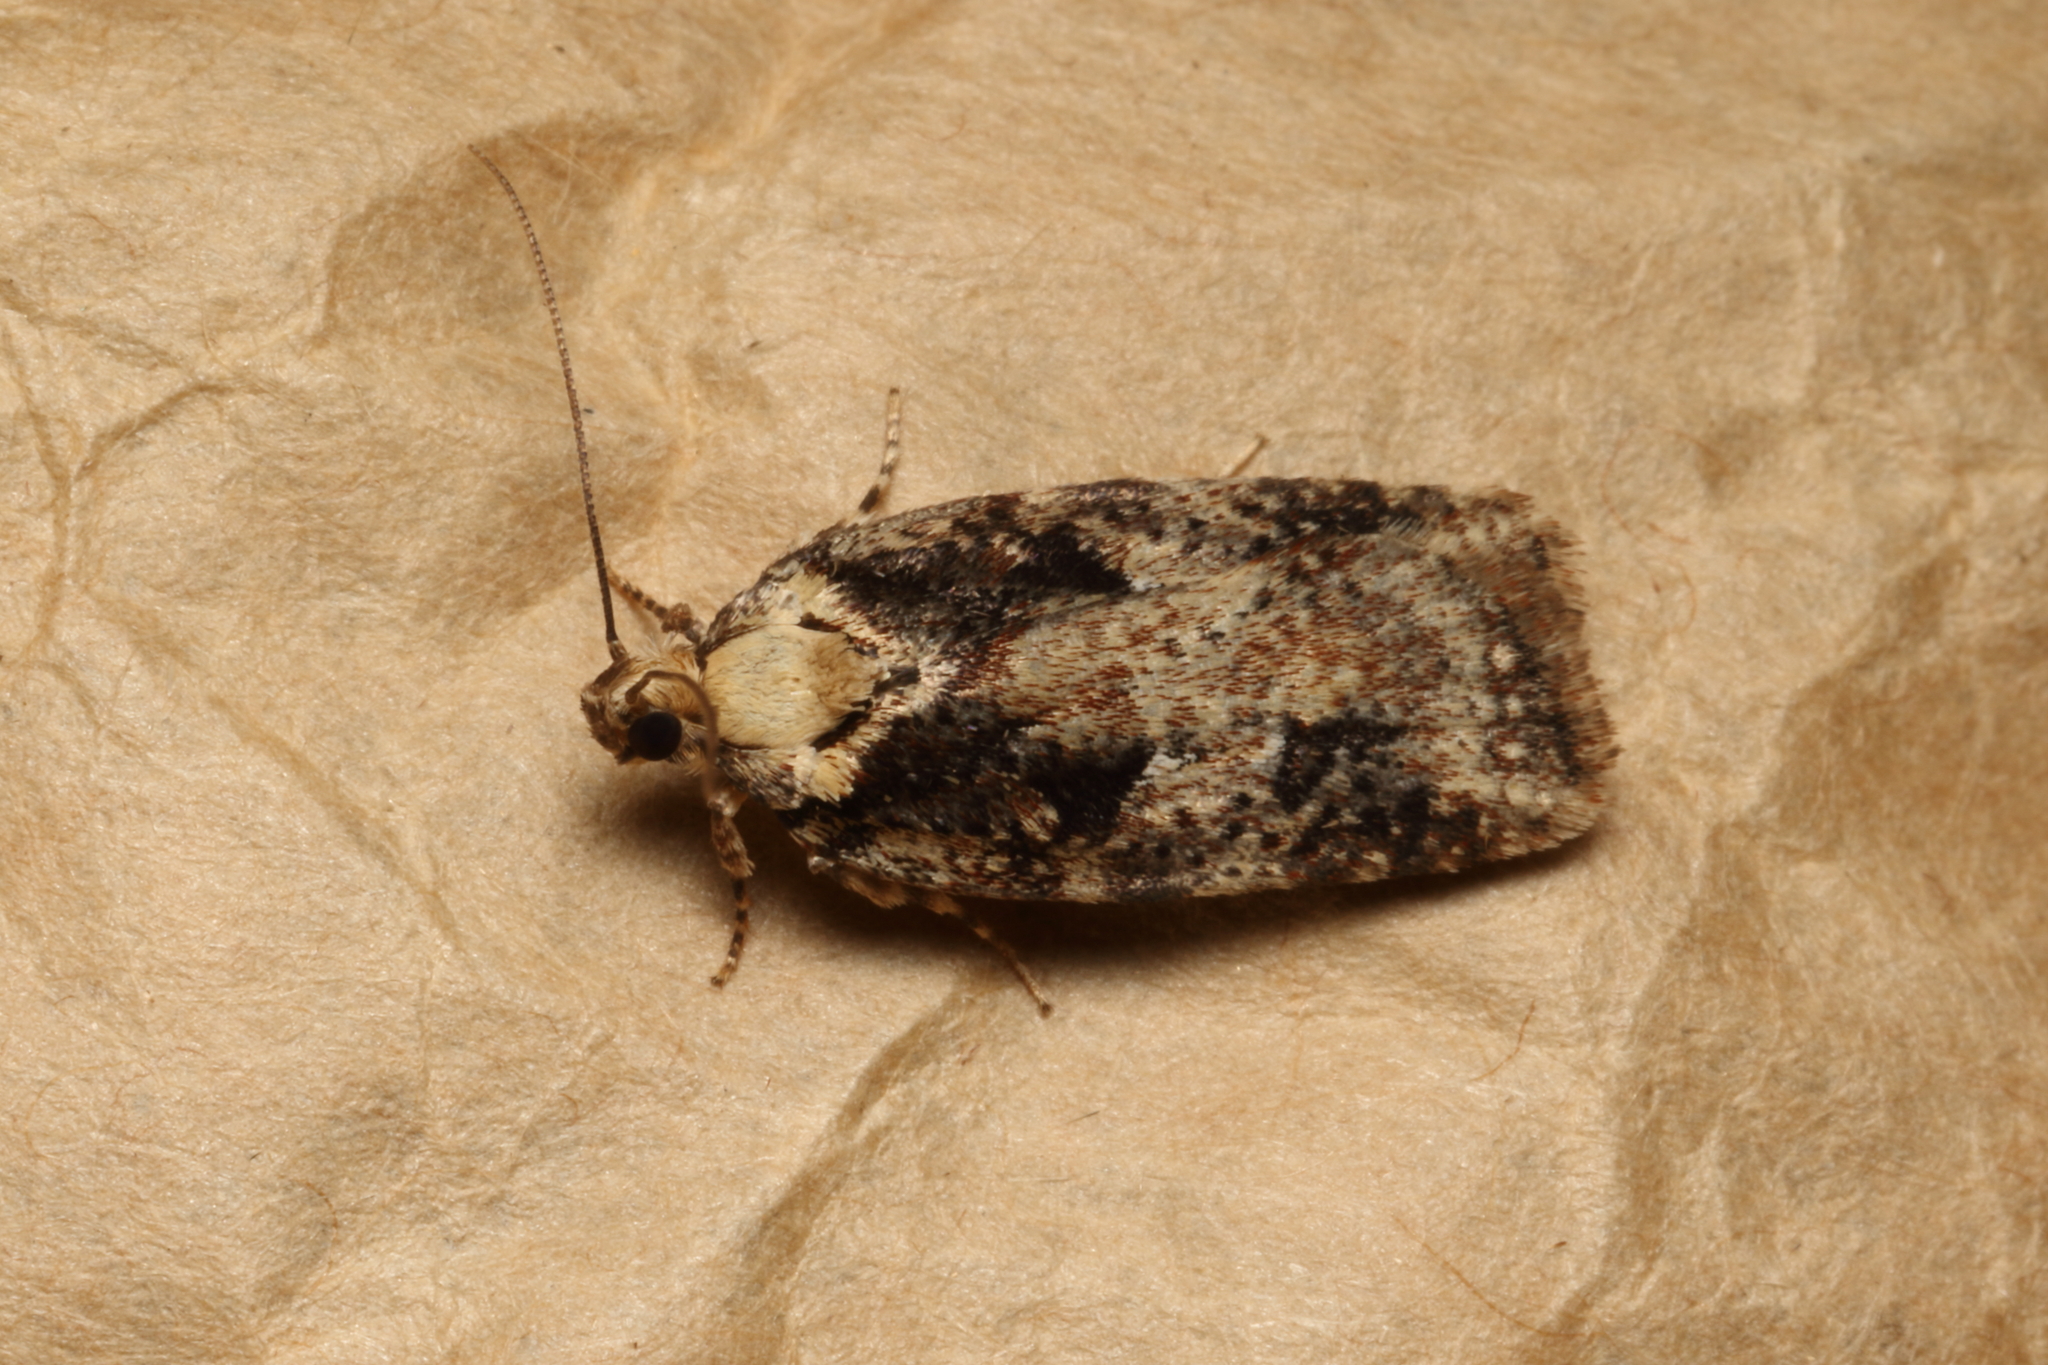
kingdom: Animalia
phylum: Arthropoda
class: Insecta
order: Lepidoptera
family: Oecophoridae
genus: Proteodes
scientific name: Proteodes profunda
